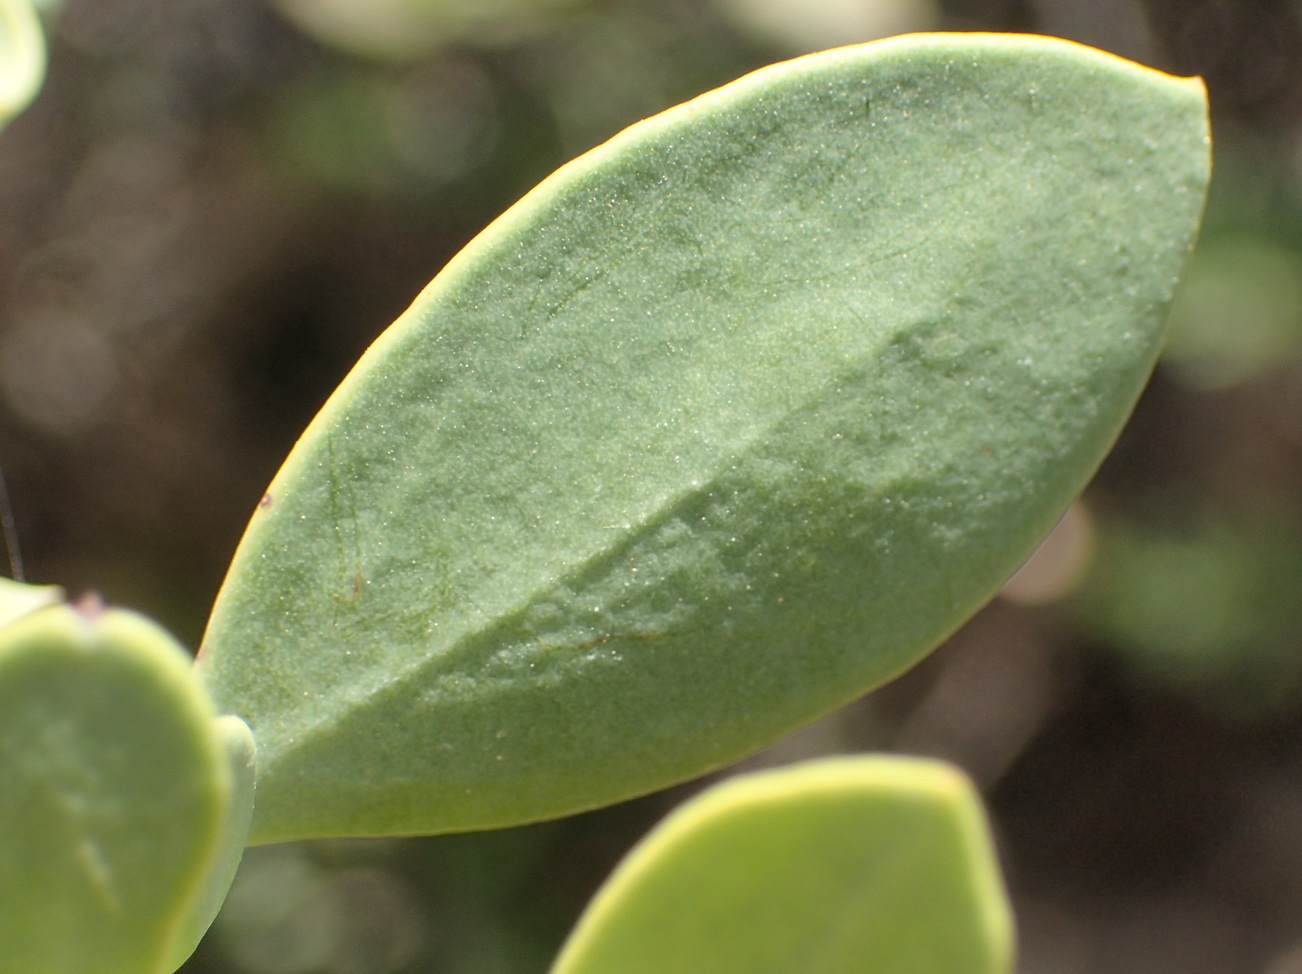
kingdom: Plantae
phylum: Tracheophyta
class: Magnoliopsida
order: Santalales
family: Santalaceae
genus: Osyris
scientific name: Osyris compressa
